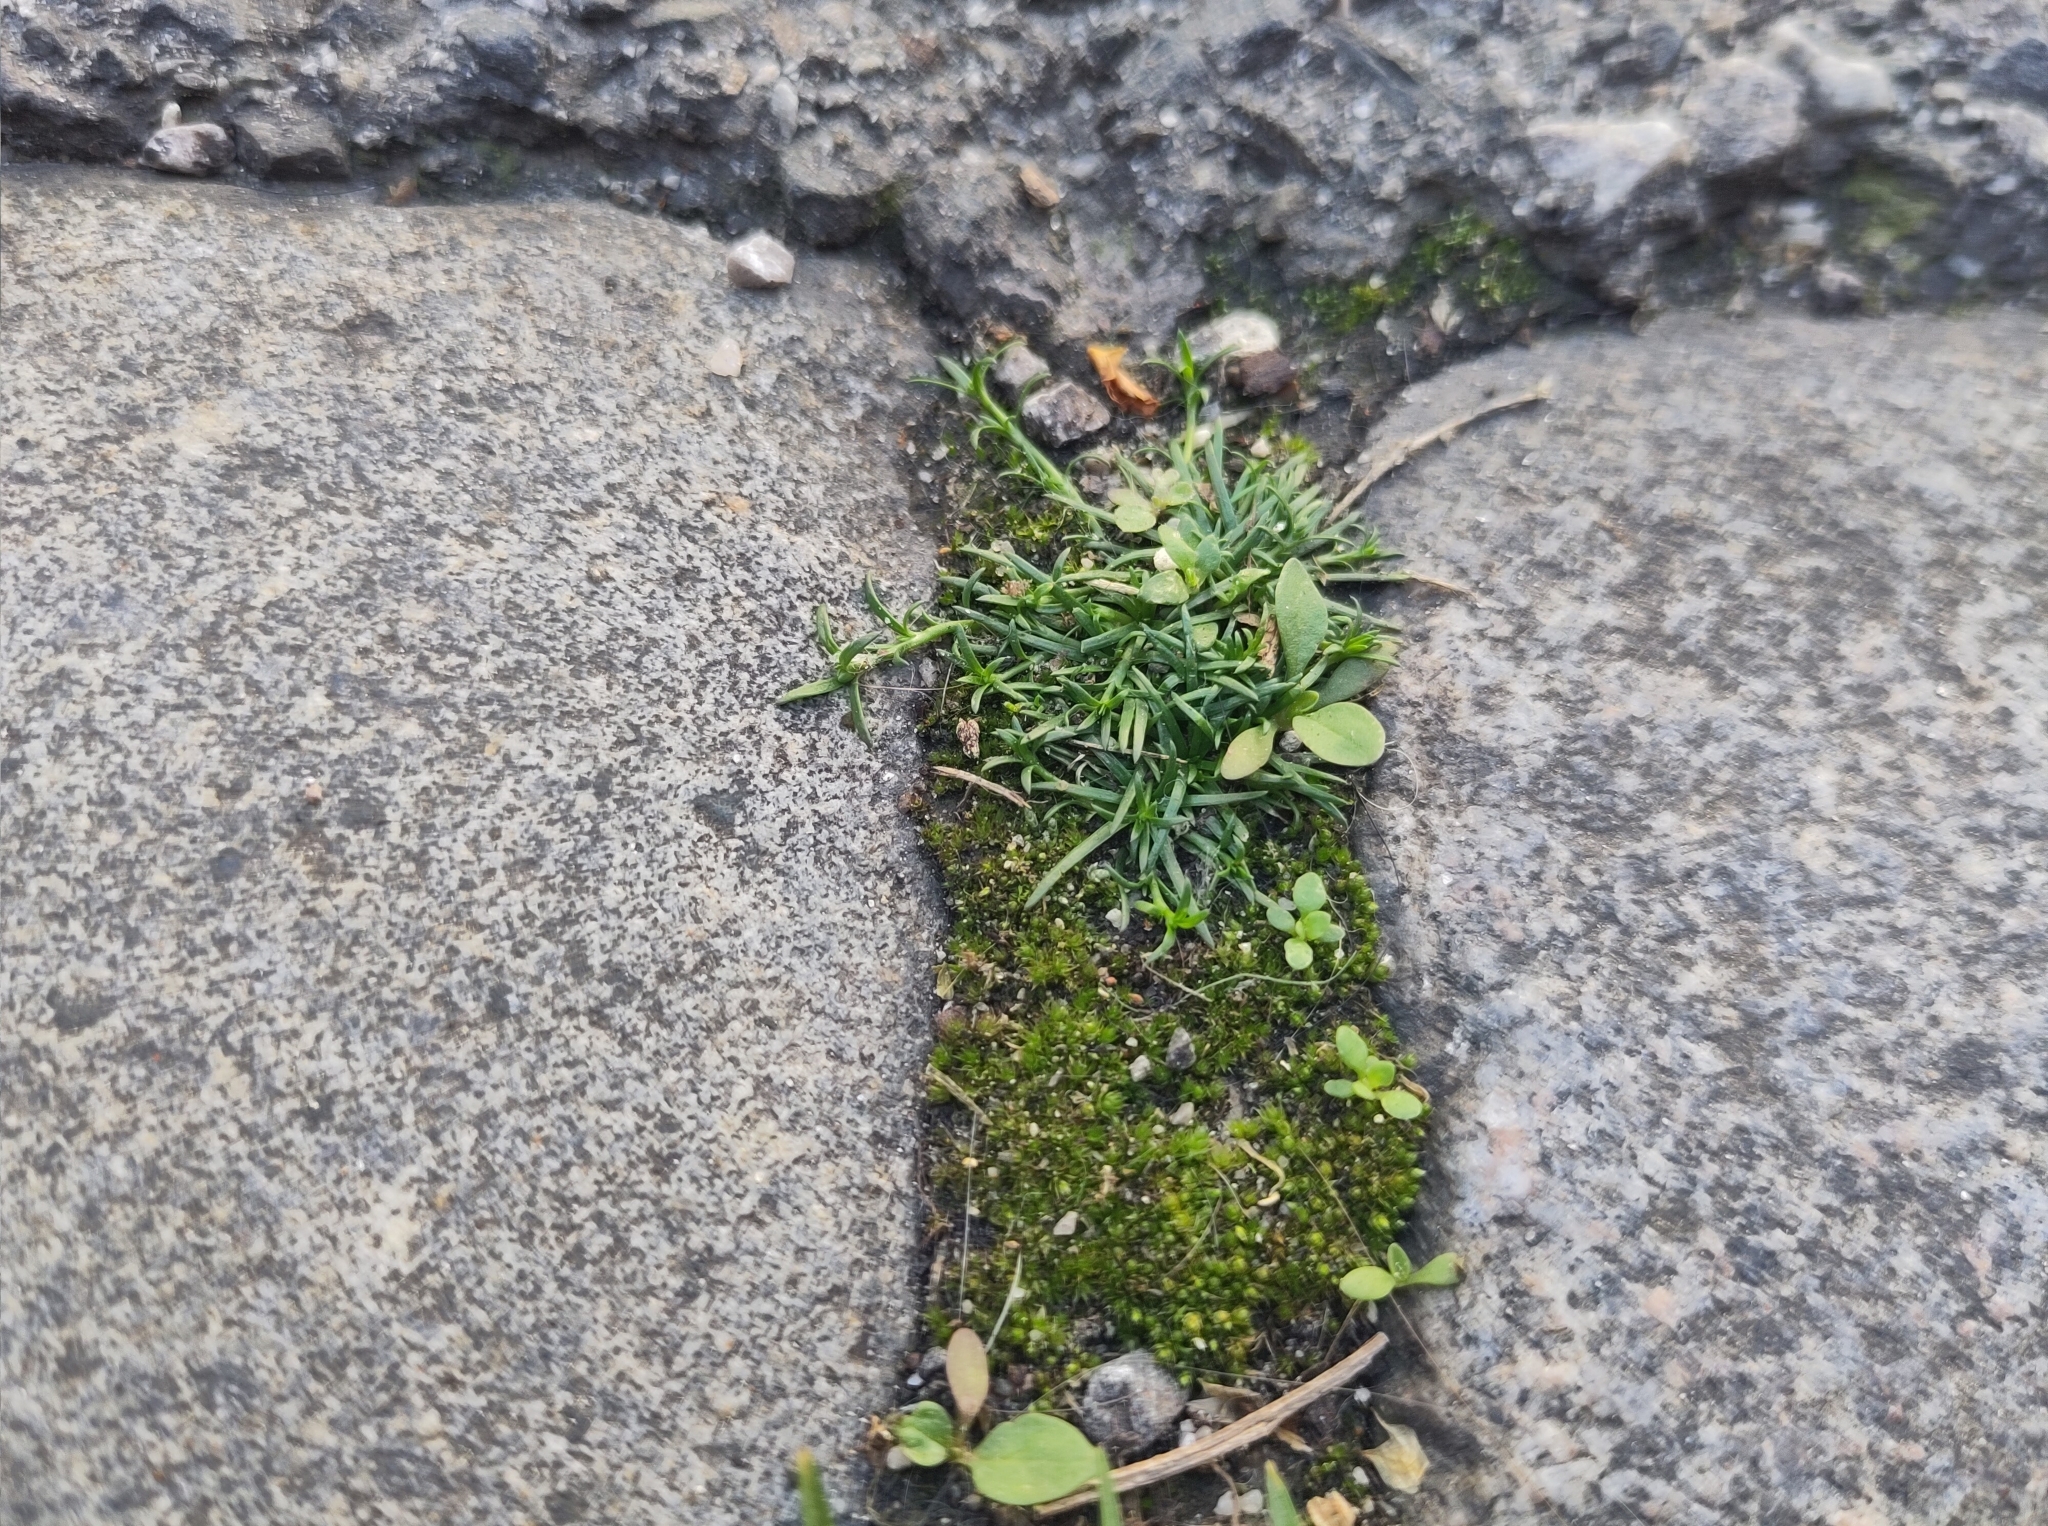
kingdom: Plantae
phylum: Tracheophyta
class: Magnoliopsida
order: Caryophyllales
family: Caryophyllaceae
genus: Sagina
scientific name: Sagina procumbens
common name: Procumbent pearlwort
